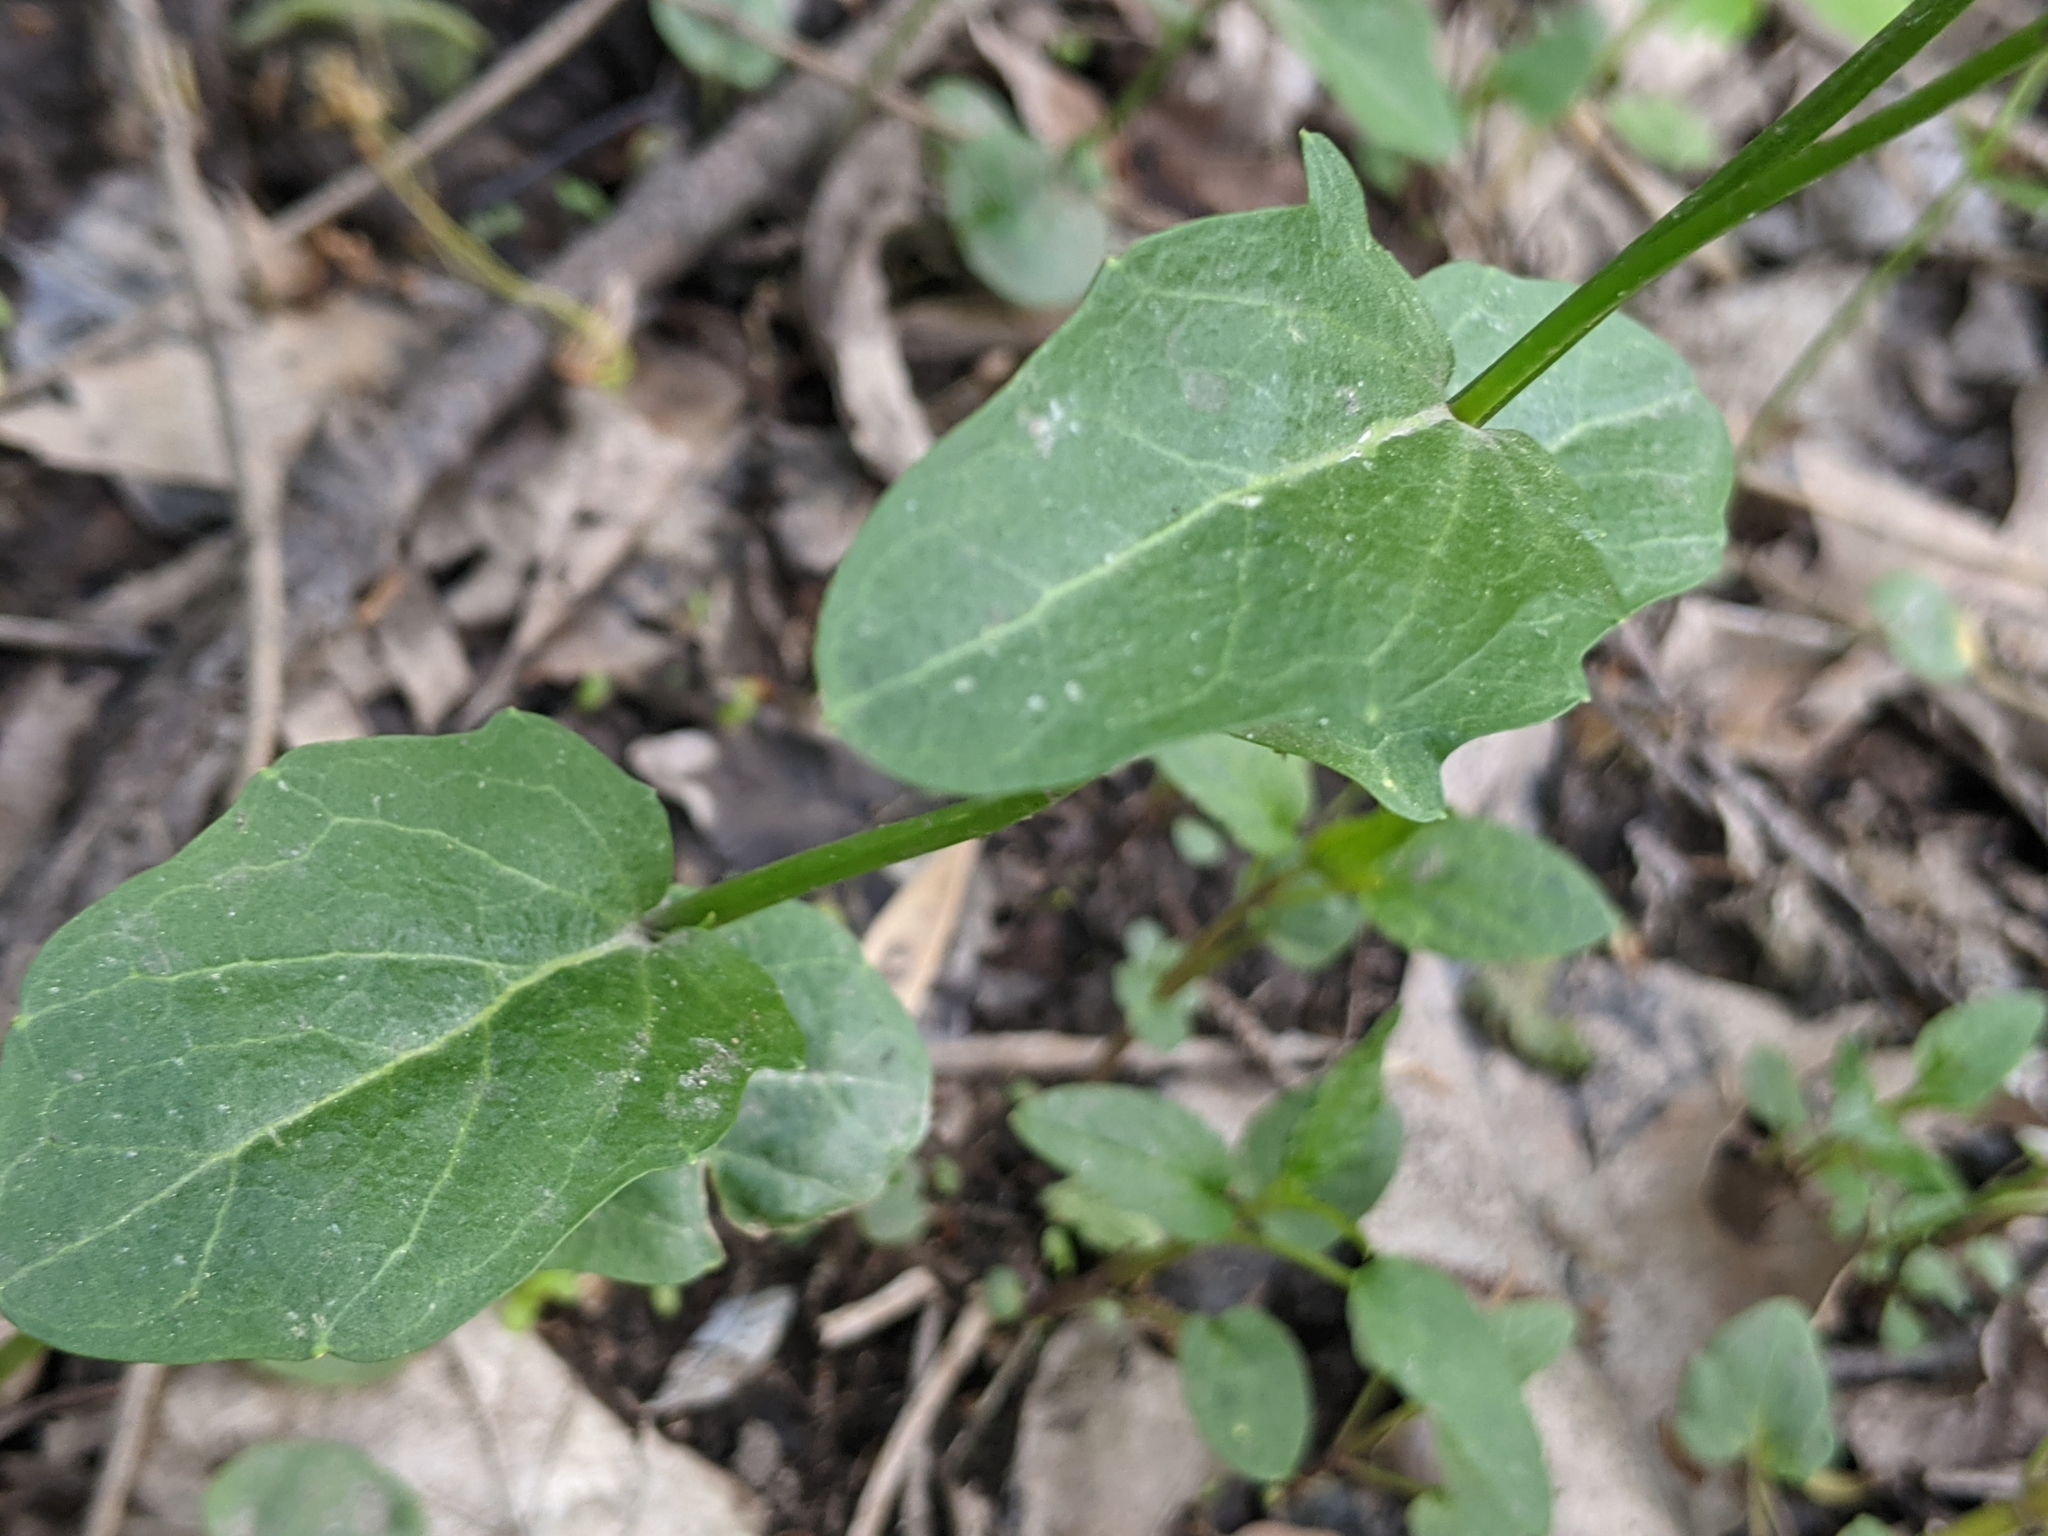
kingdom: Plantae
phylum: Tracheophyta
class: Magnoliopsida
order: Brassicales
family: Brassicaceae
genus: Cardamine
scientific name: Cardamine bulbosa
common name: Spring cress
